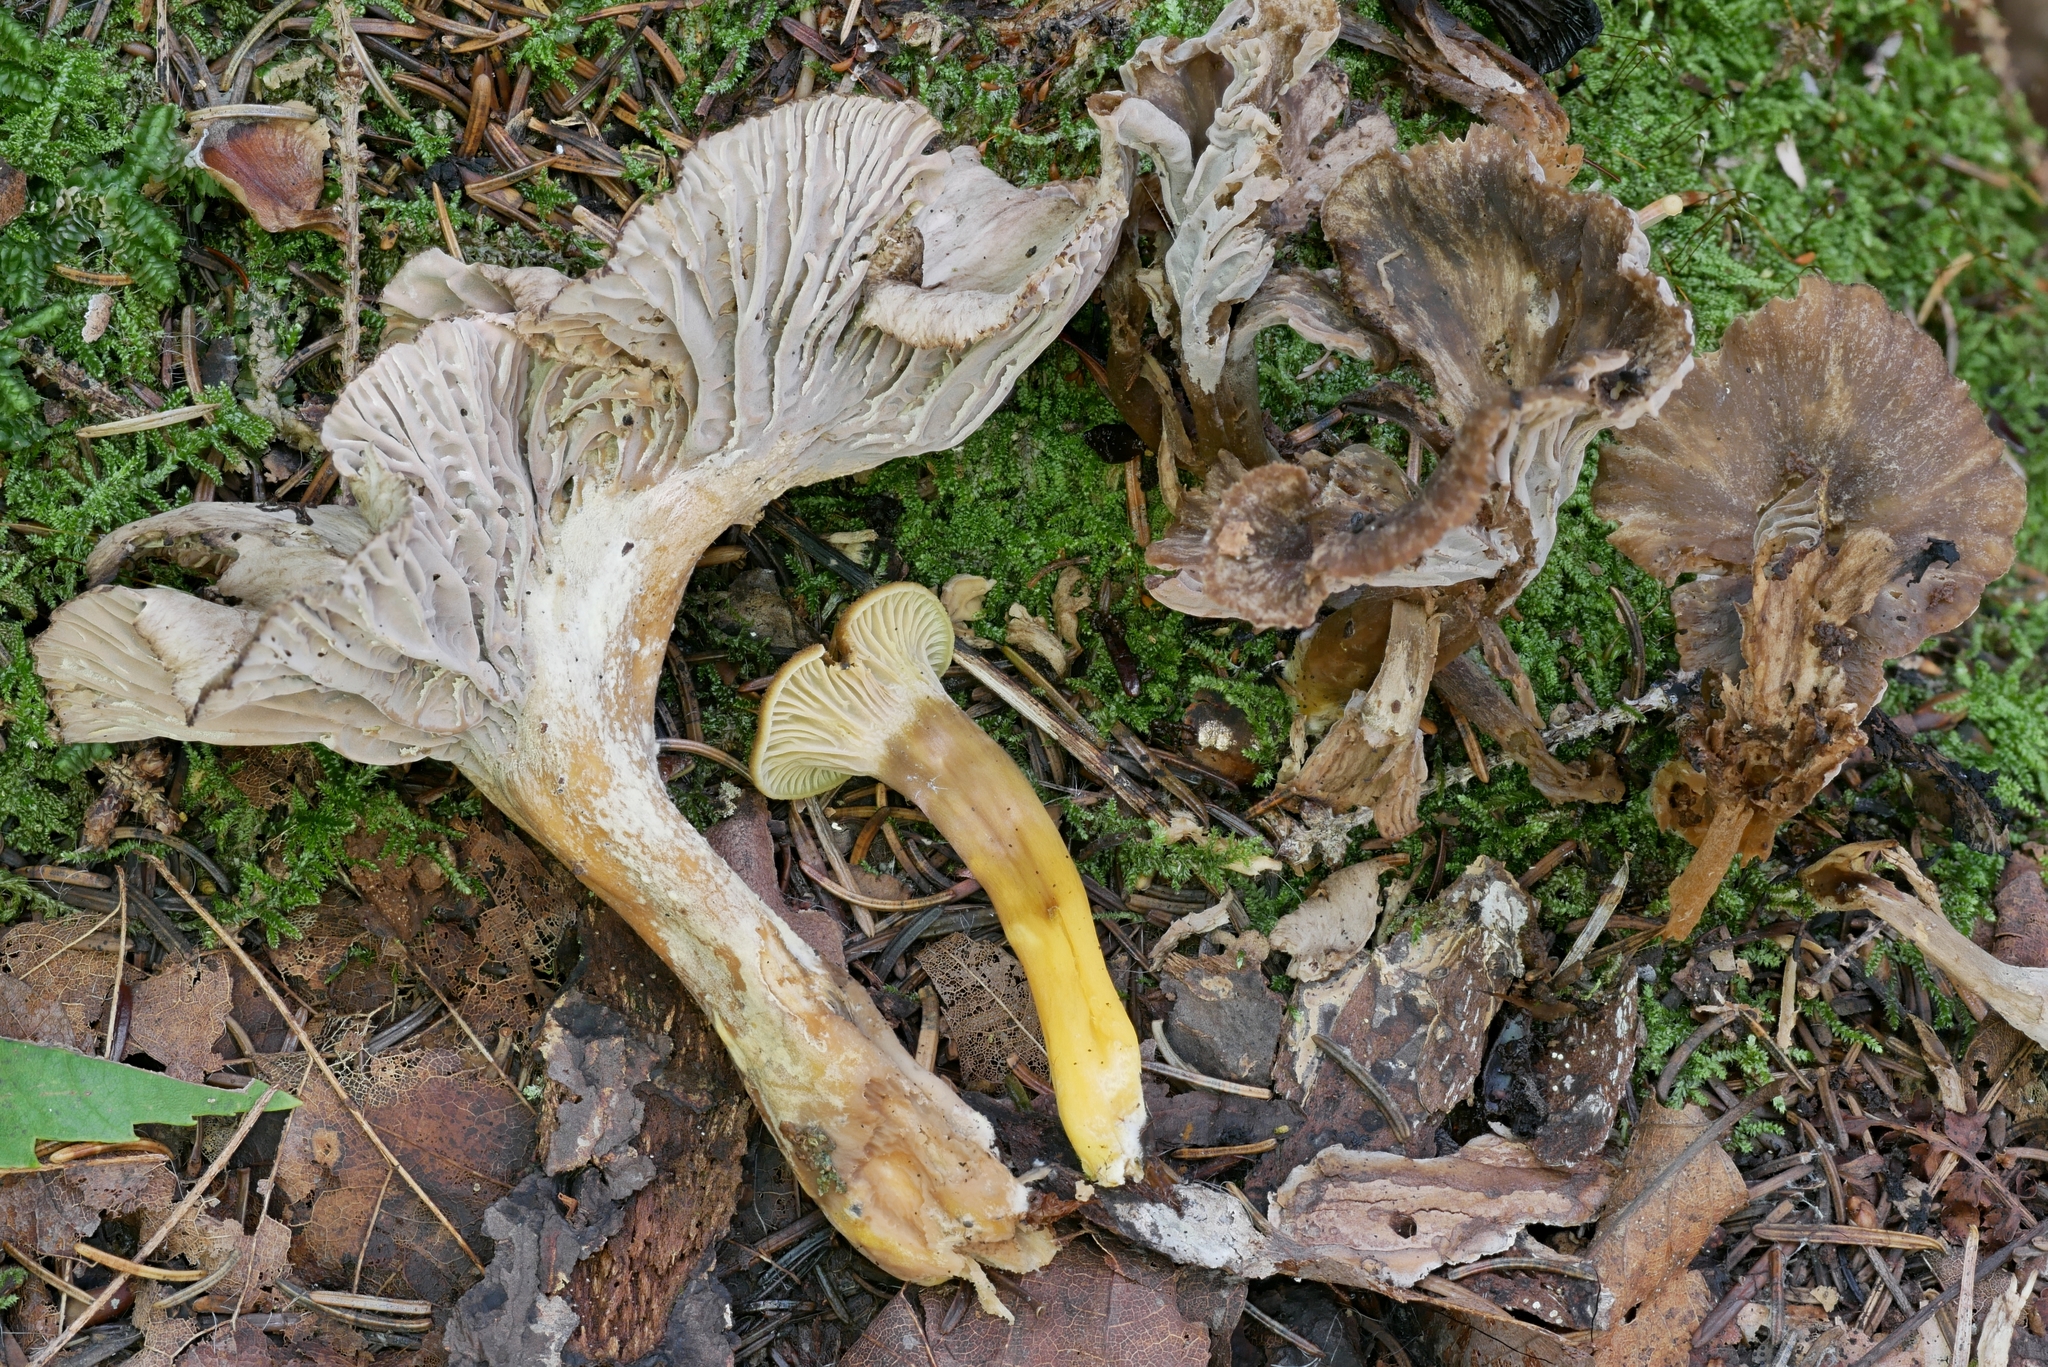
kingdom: Fungi
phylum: Basidiomycota
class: Agaricomycetes
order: Cantharellales
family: Hydnaceae
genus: Craterellus
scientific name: Craterellus tubaeformis
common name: Yellowfoot
